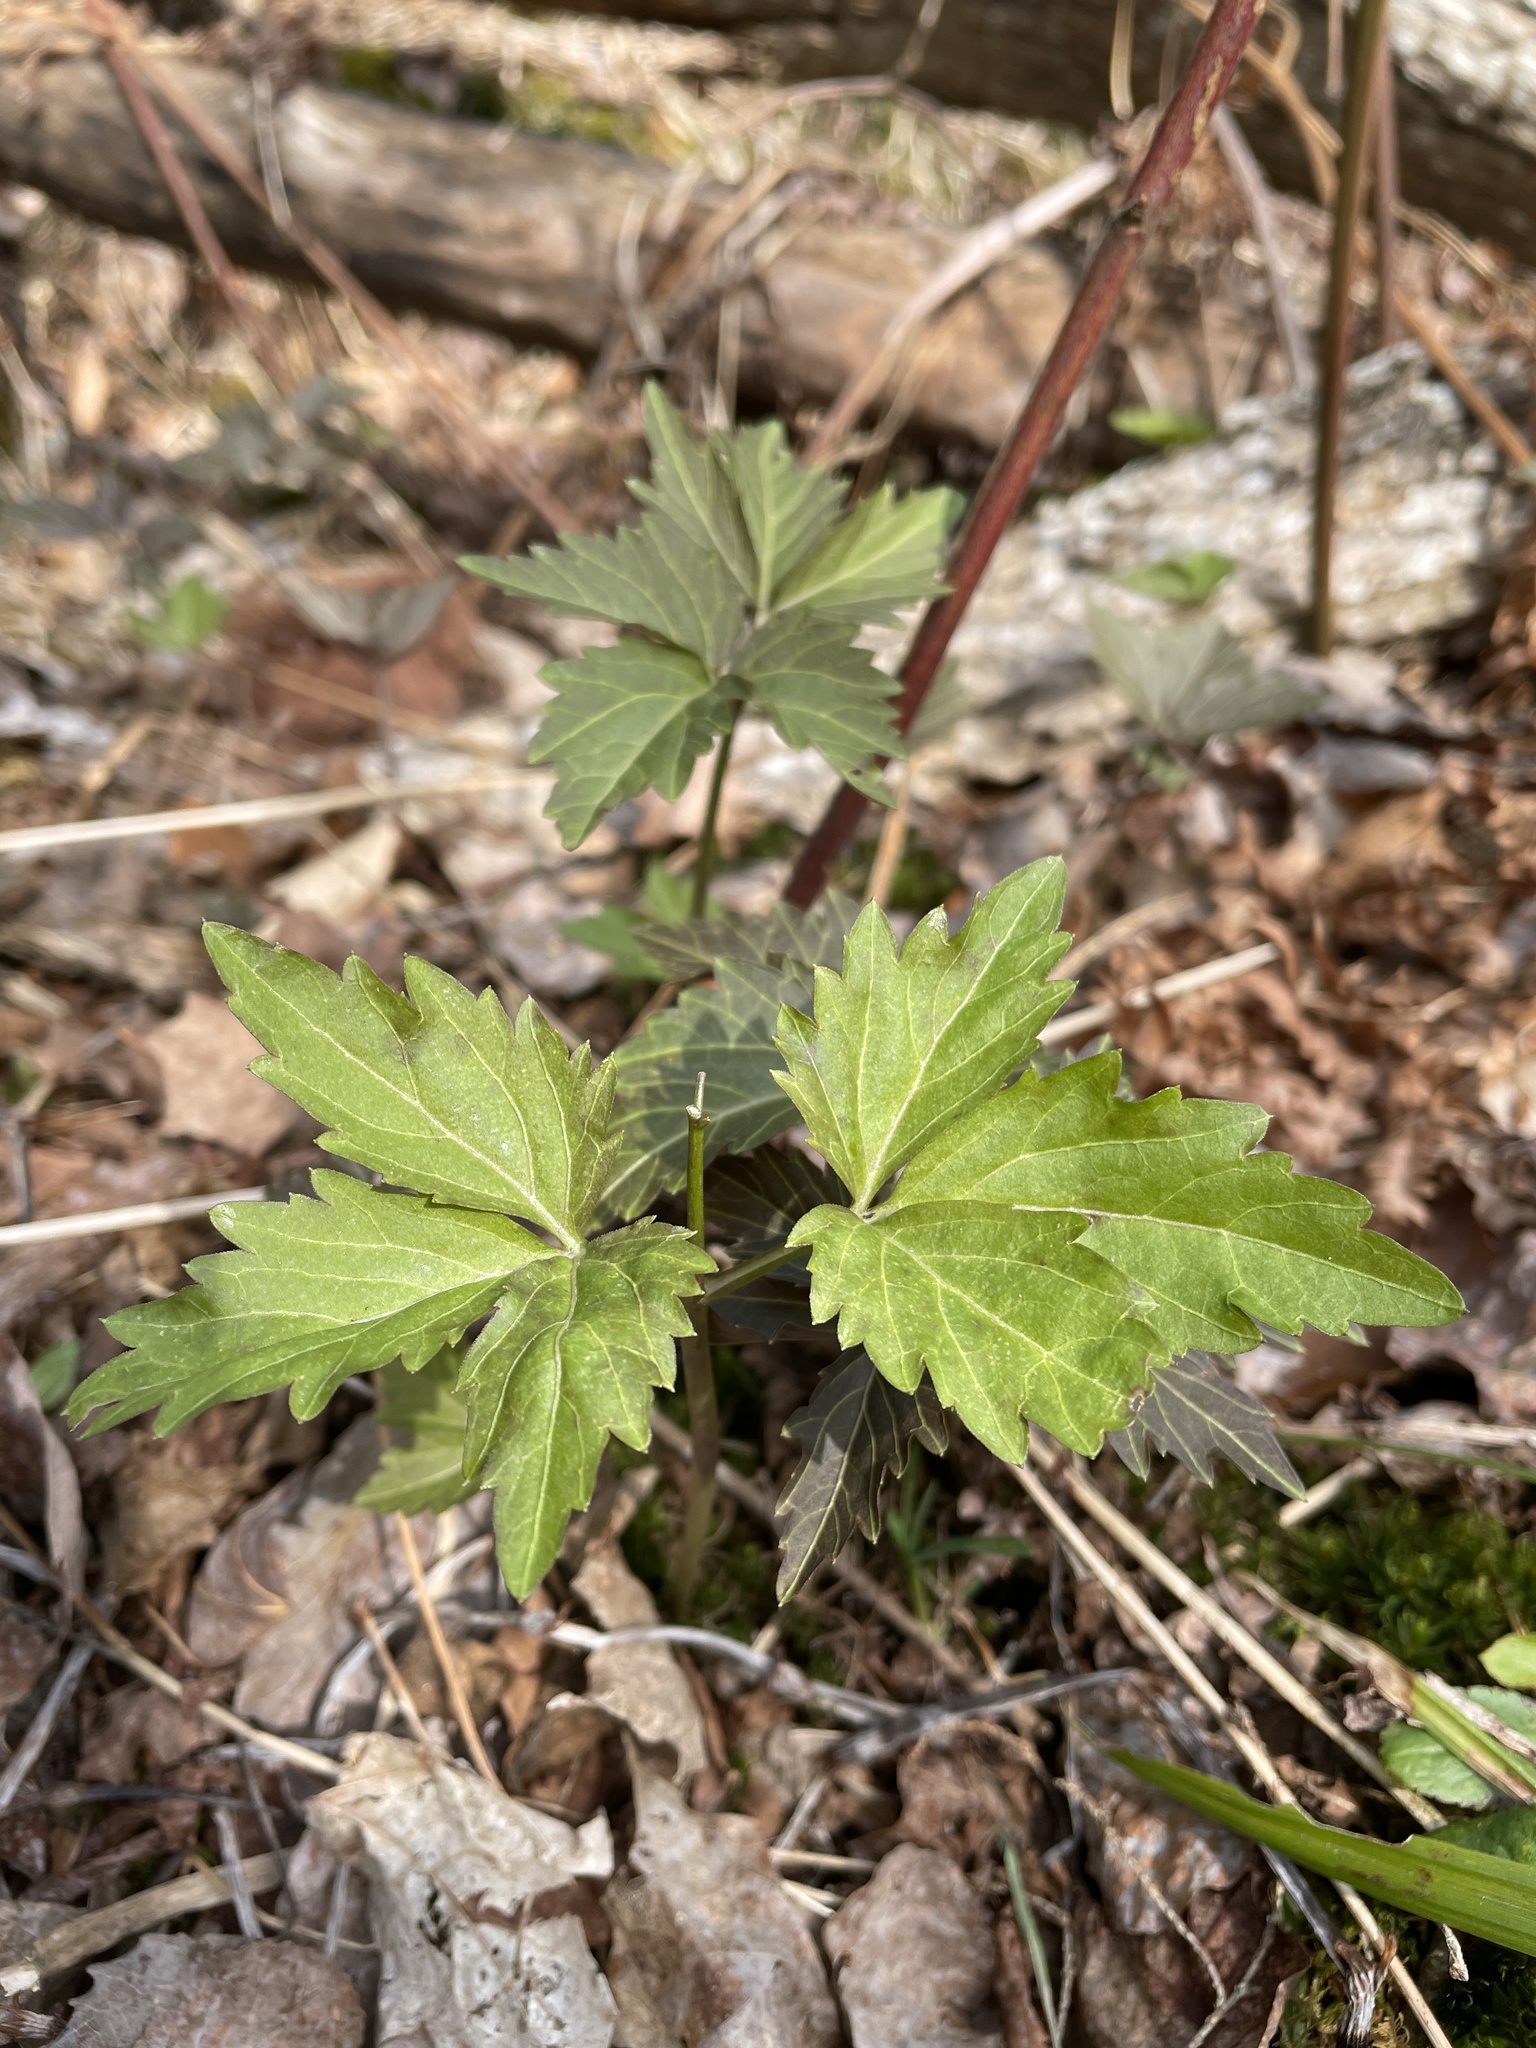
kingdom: Plantae
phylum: Tracheophyta
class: Magnoliopsida
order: Brassicales
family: Brassicaceae
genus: Cardamine
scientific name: Cardamine diphylla
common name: Broad-leaved toothwort
